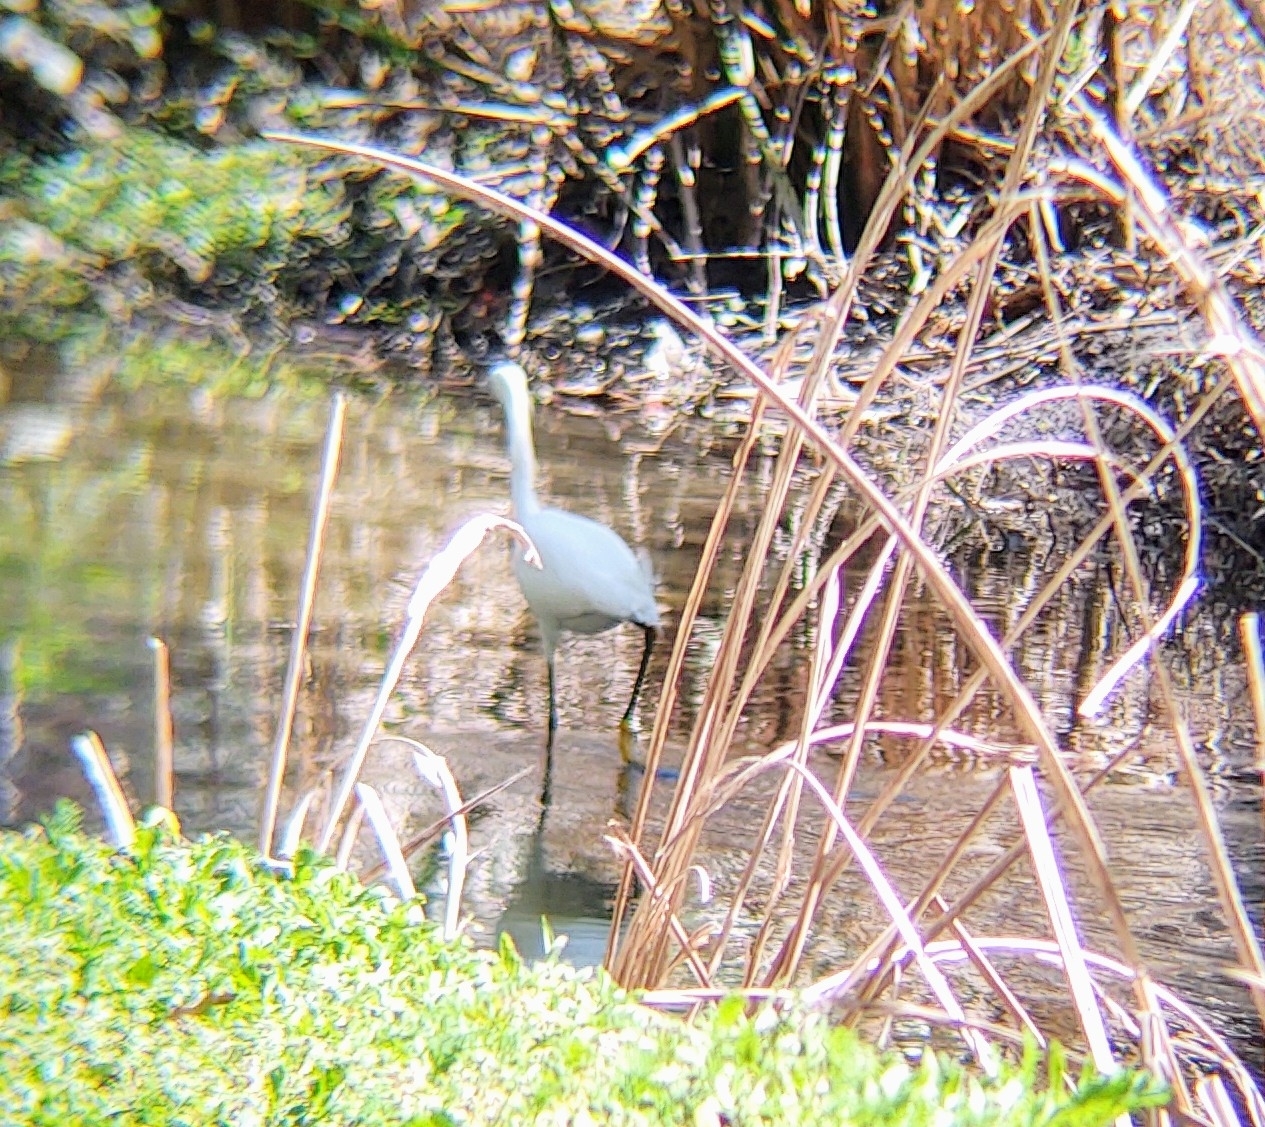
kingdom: Animalia
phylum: Chordata
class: Aves
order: Pelecaniformes
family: Ardeidae
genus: Egretta
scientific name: Egretta thula
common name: Snowy egret
